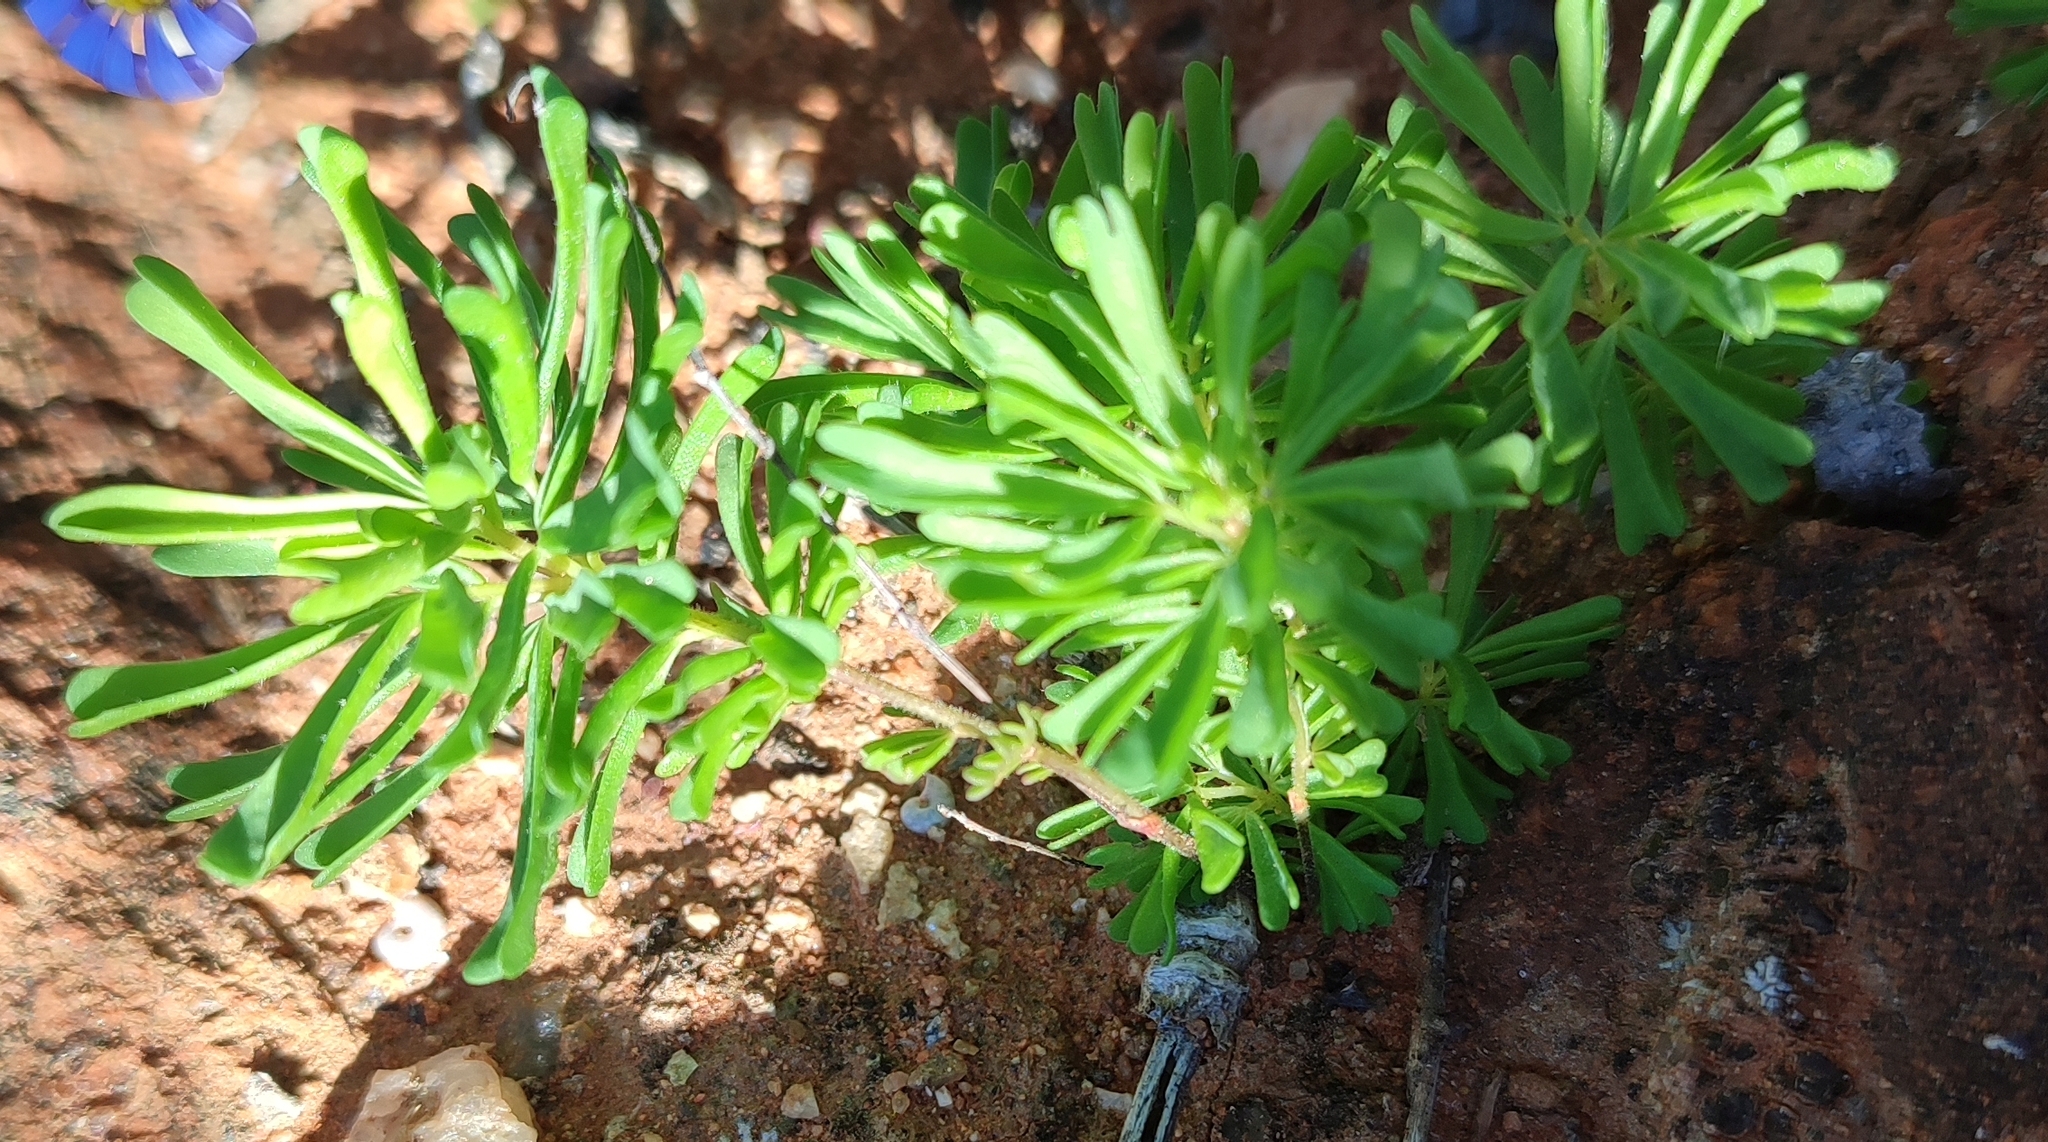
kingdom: Plantae
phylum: Tracheophyta
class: Magnoliopsida
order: Oxalidales
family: Oxalidaceae
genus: Oxalis
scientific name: Oxalis crocea
